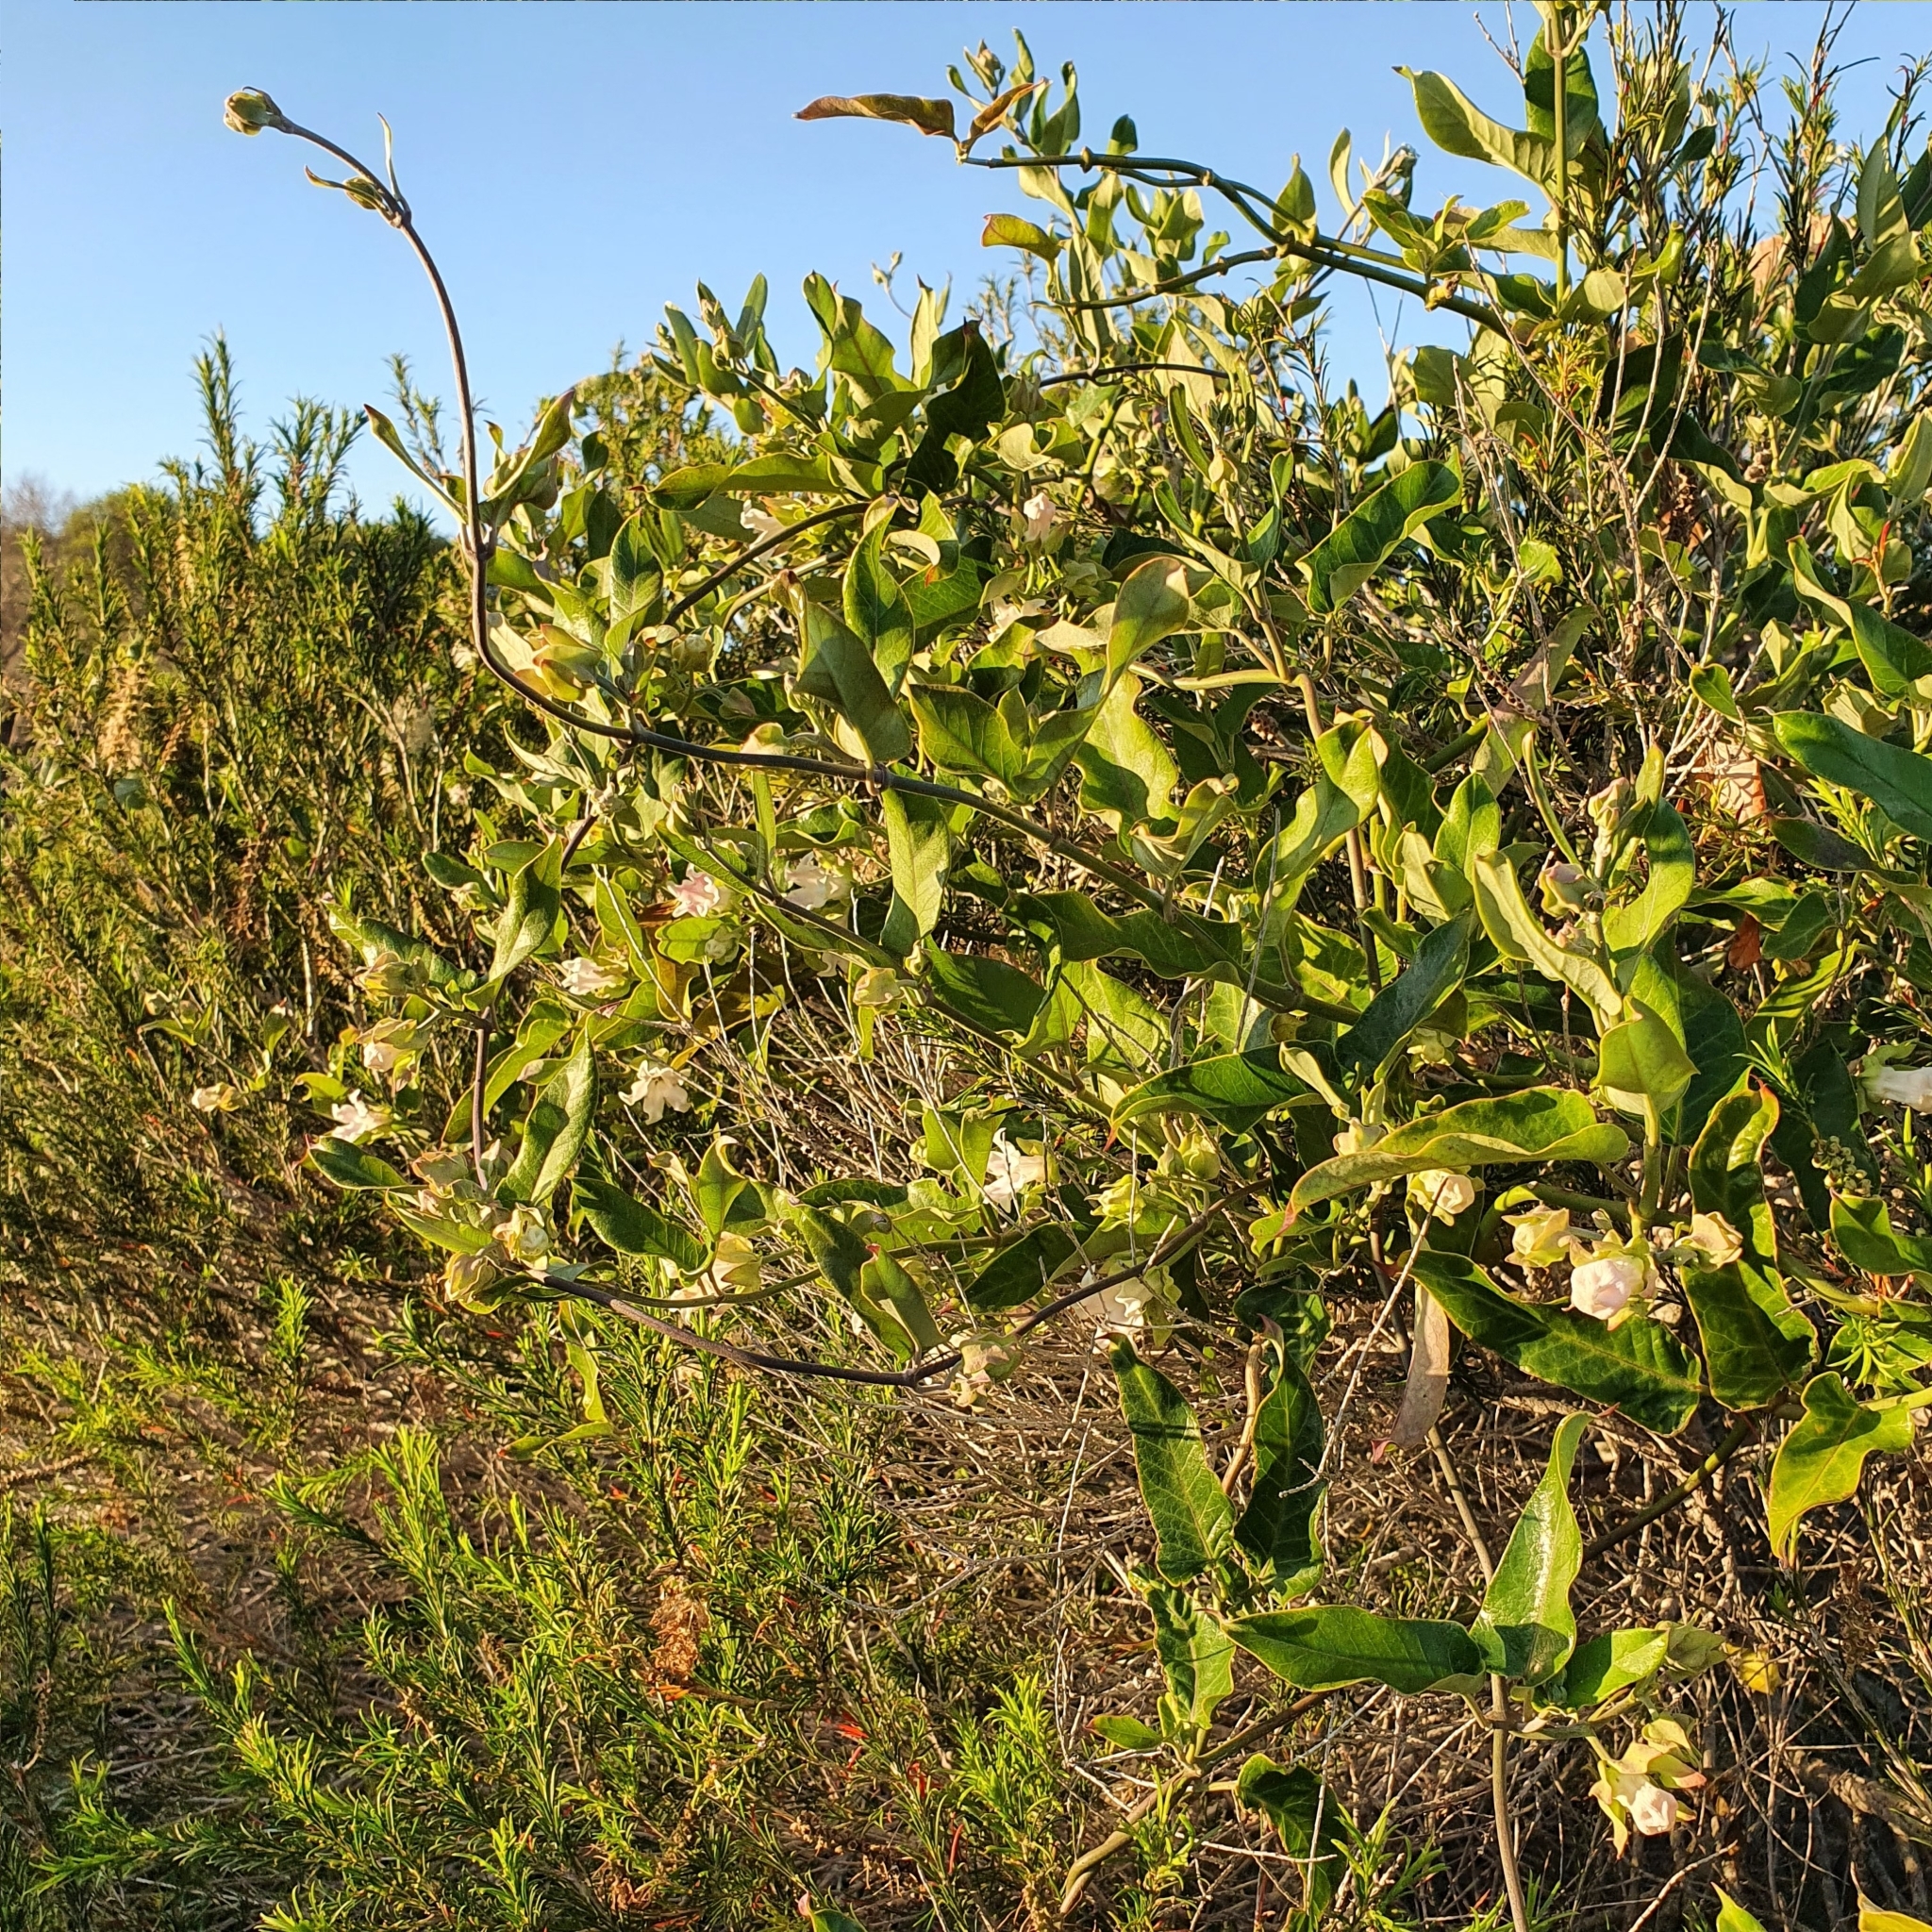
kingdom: Plantae
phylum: Tracheophyta
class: Magnoliopsida
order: Gentianales
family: Apocynaceae
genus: Araujia
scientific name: Araujia sericifera
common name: White bladderflower
